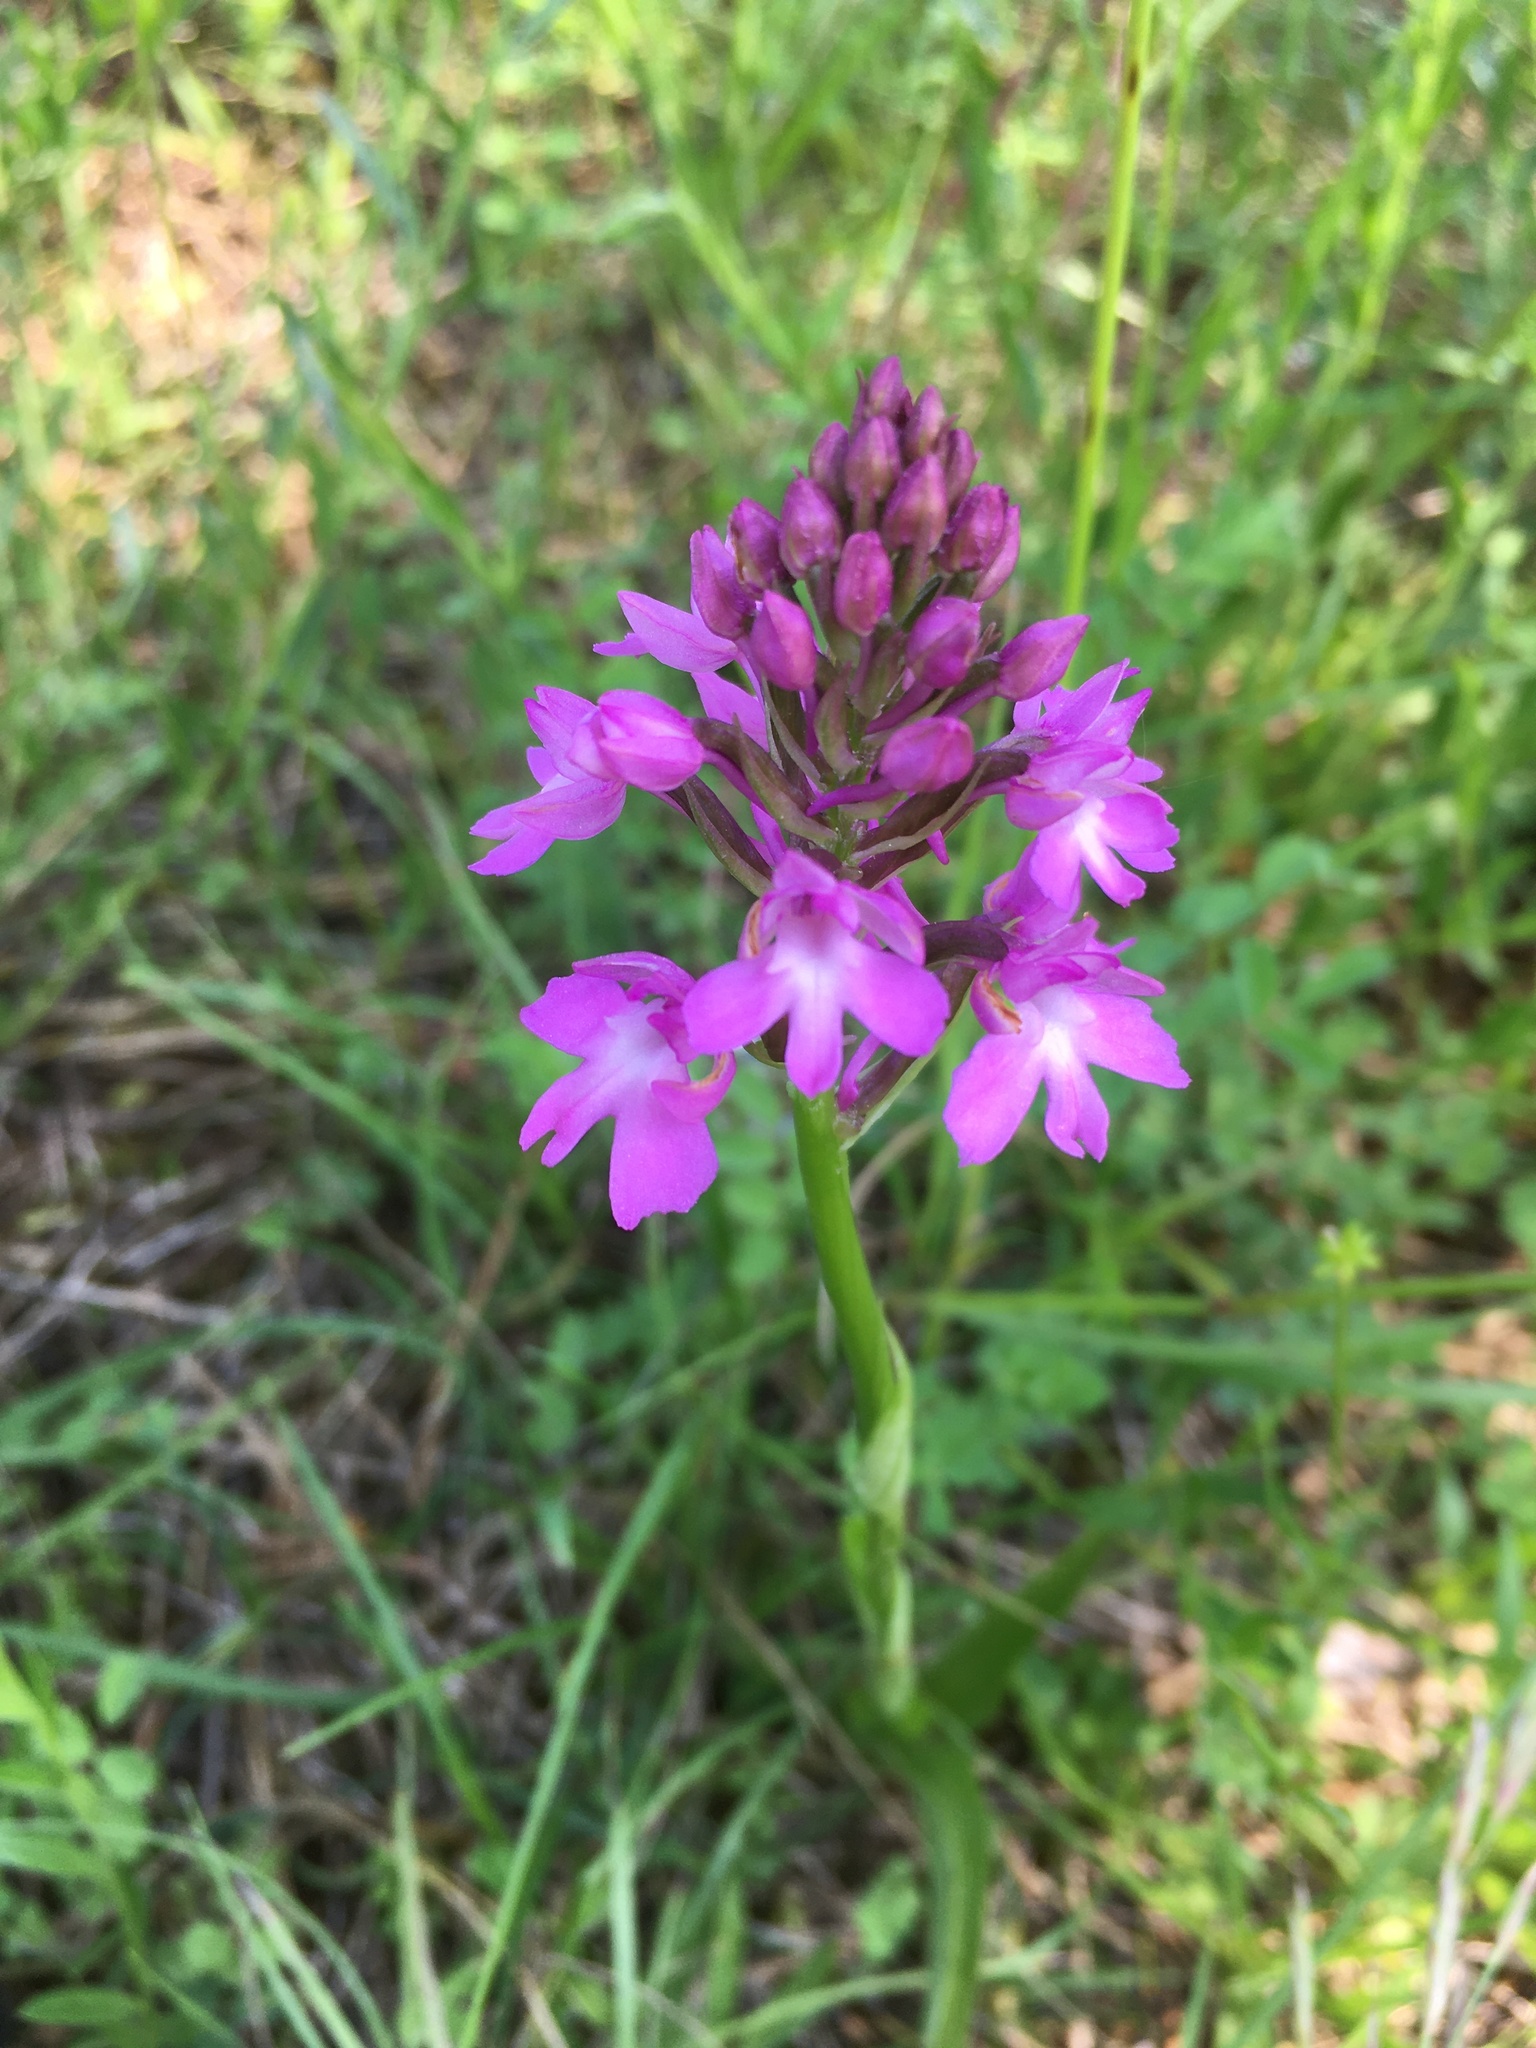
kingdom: Plantae
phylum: Tracheophyta
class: Liliopsida
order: Asparagales
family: Orchidaceae
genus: Anacamptis
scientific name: Anacamptis pyramidalis
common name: Pyramidal orchid
